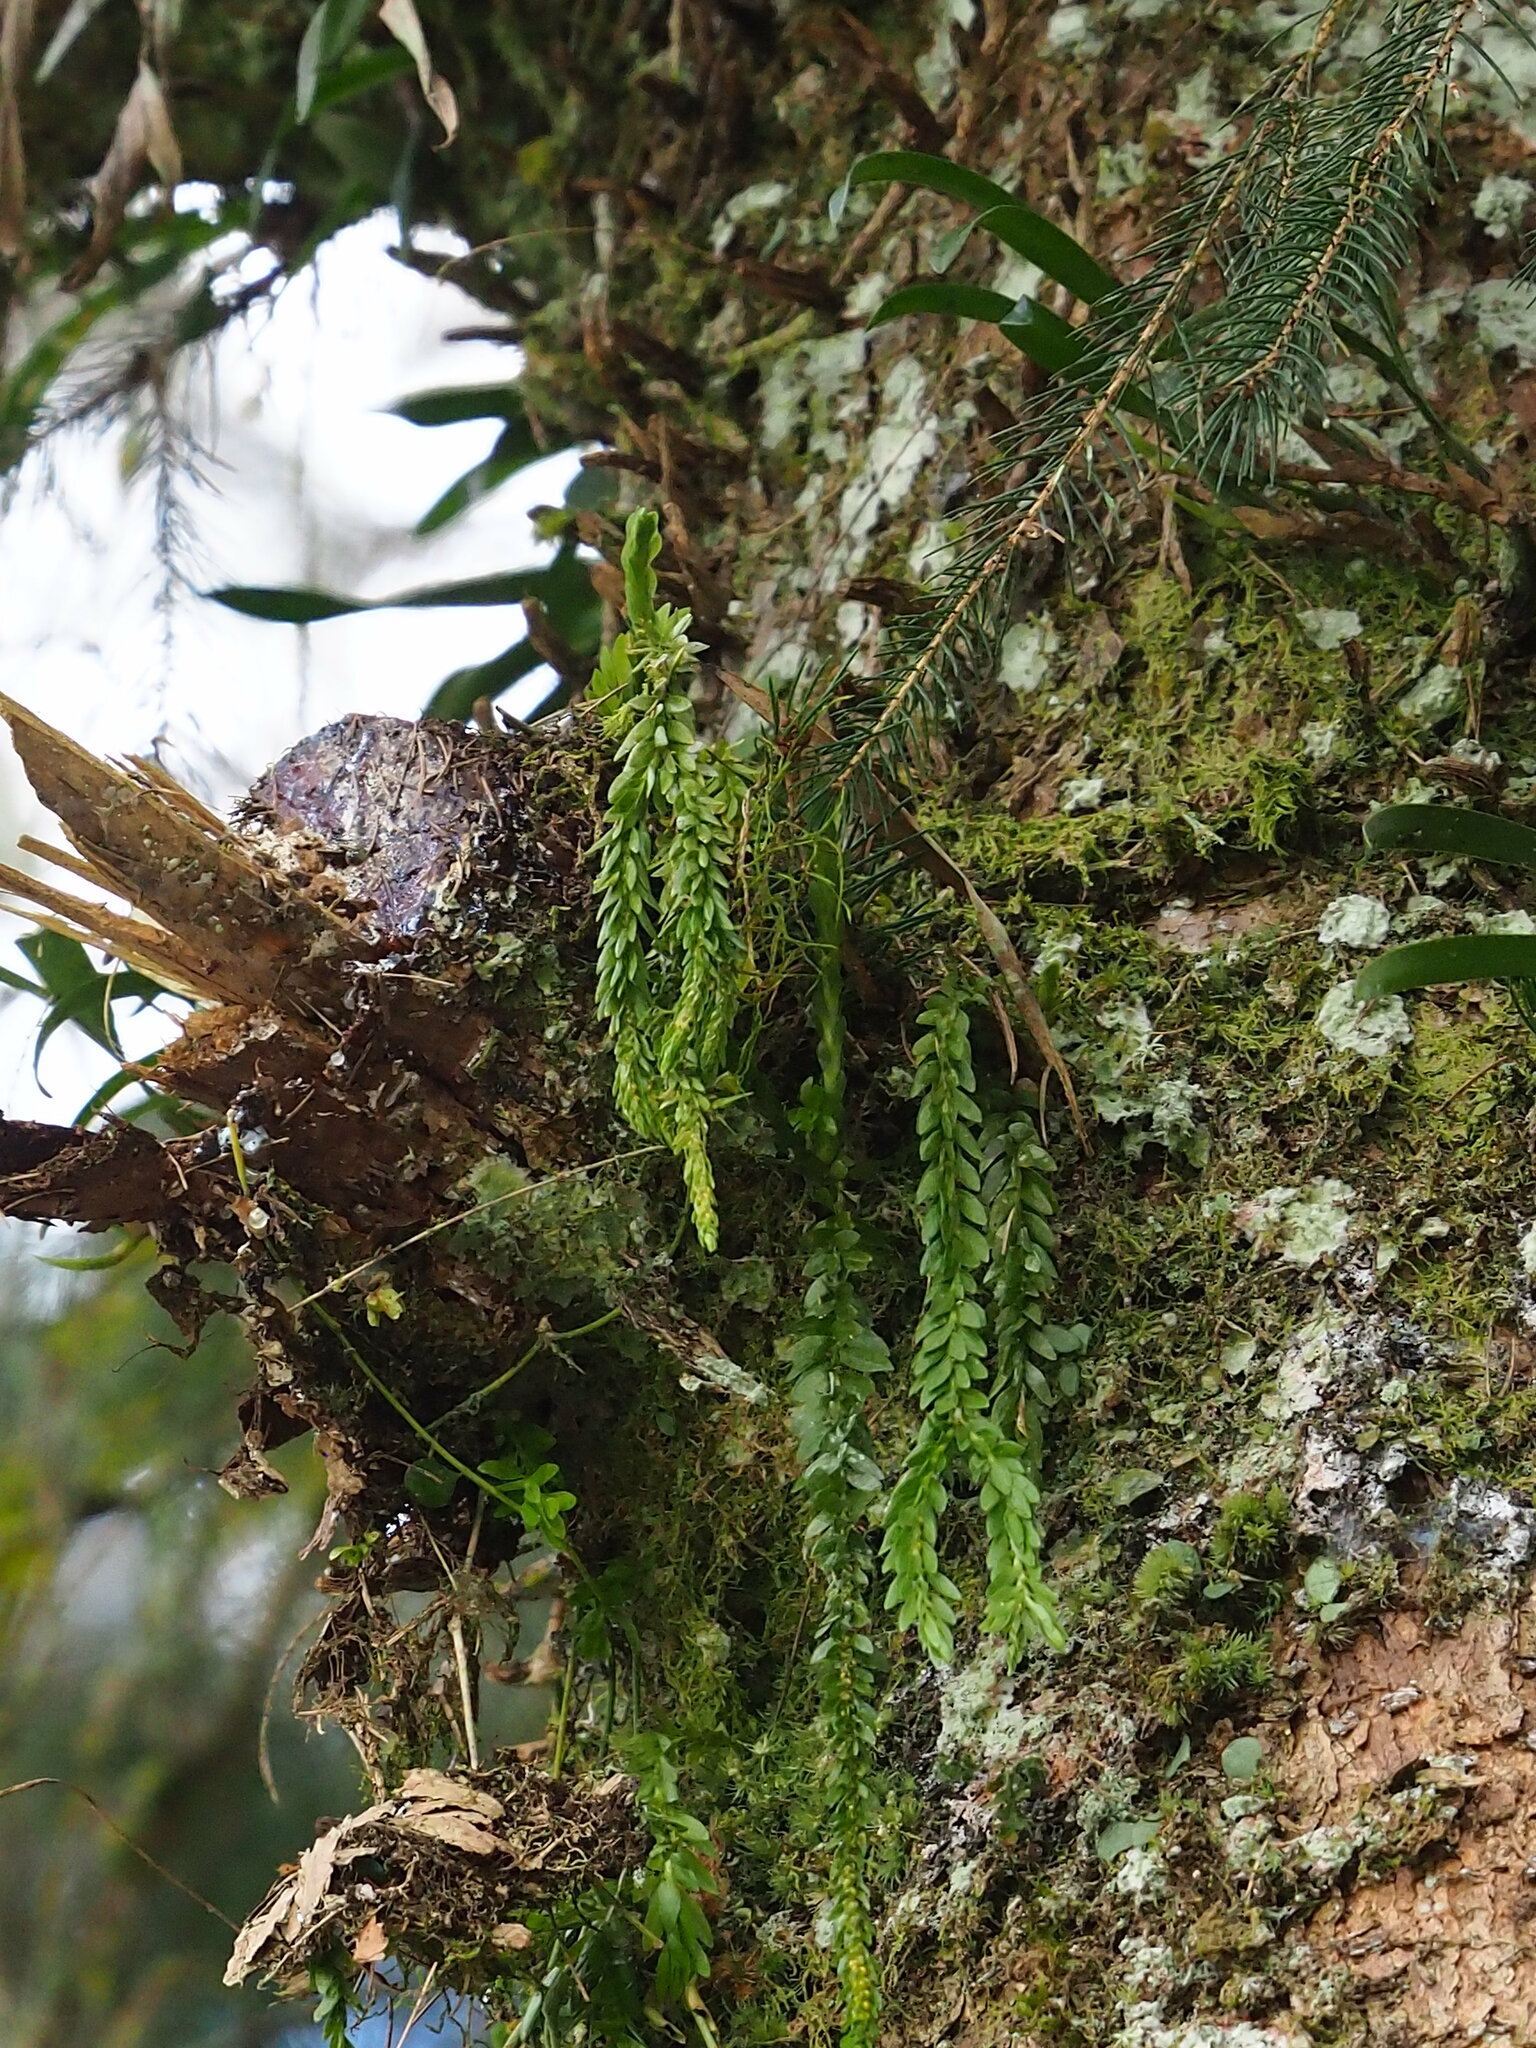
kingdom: Plantae
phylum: Tracheophyta
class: Lycopodiopsida
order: Lycopodiales
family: Lycopodiaceae
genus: Phlegmariurus
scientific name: Phlegmariurus fordii
